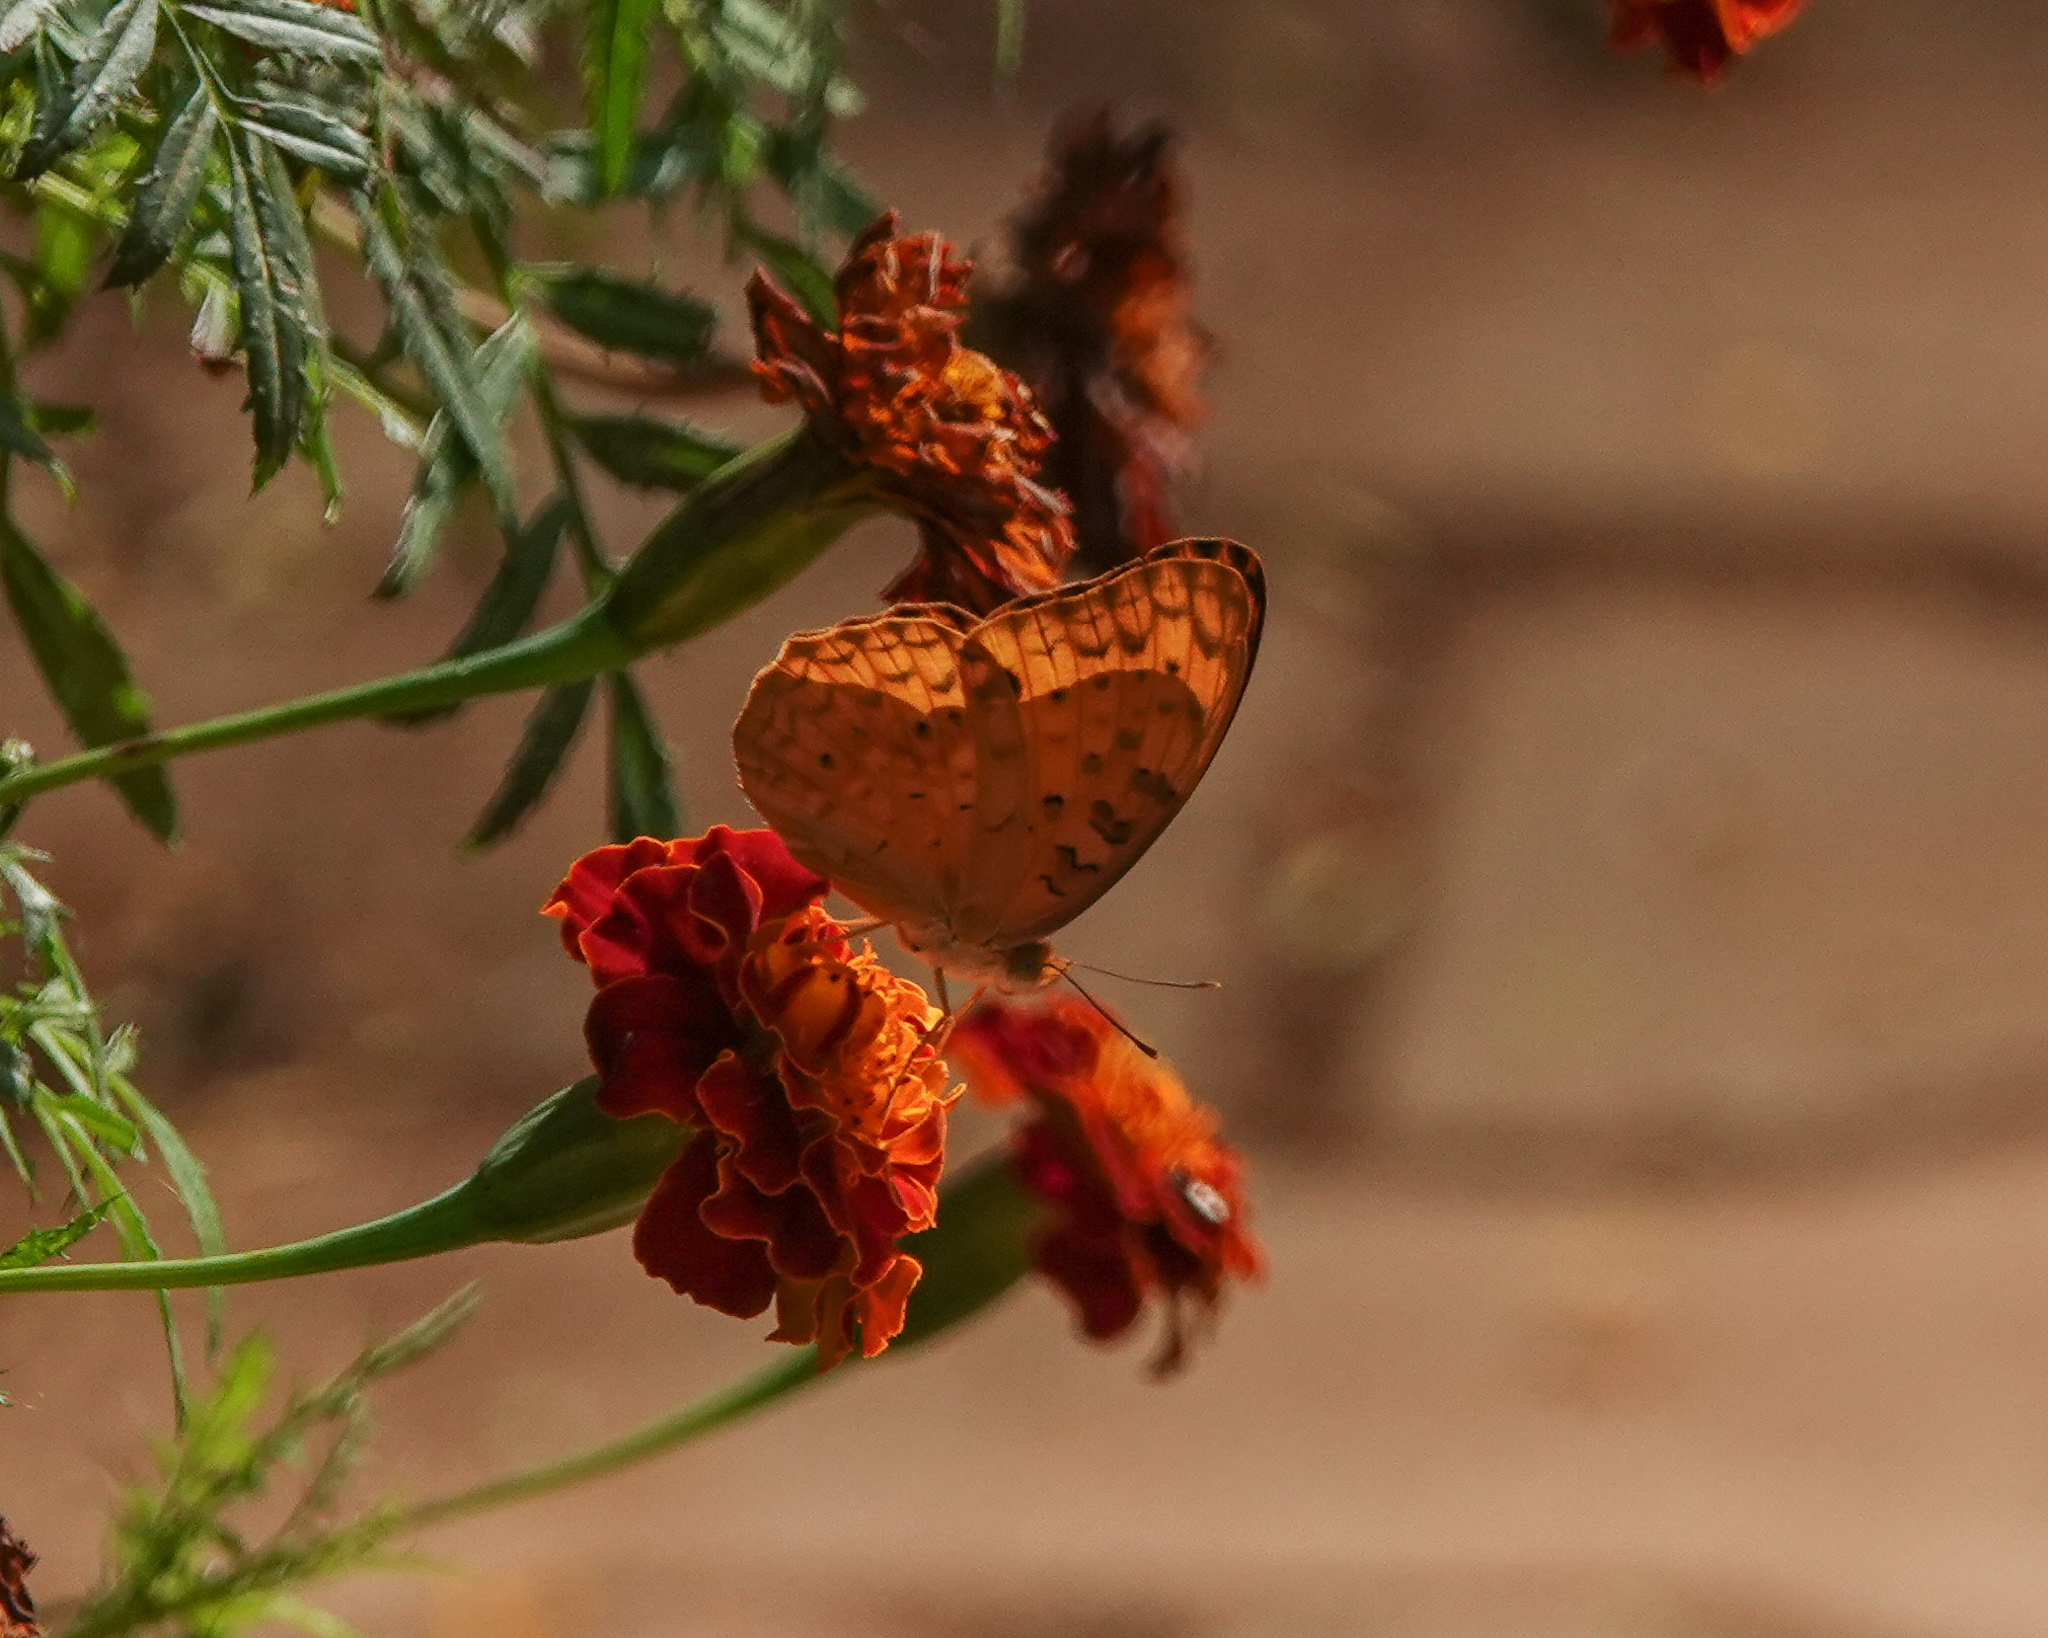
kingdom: Animalia
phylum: Arthropoda
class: Insecta
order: Lepidoptera
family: Nymphalidae
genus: Phalanta
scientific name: Phalanta phalantha
